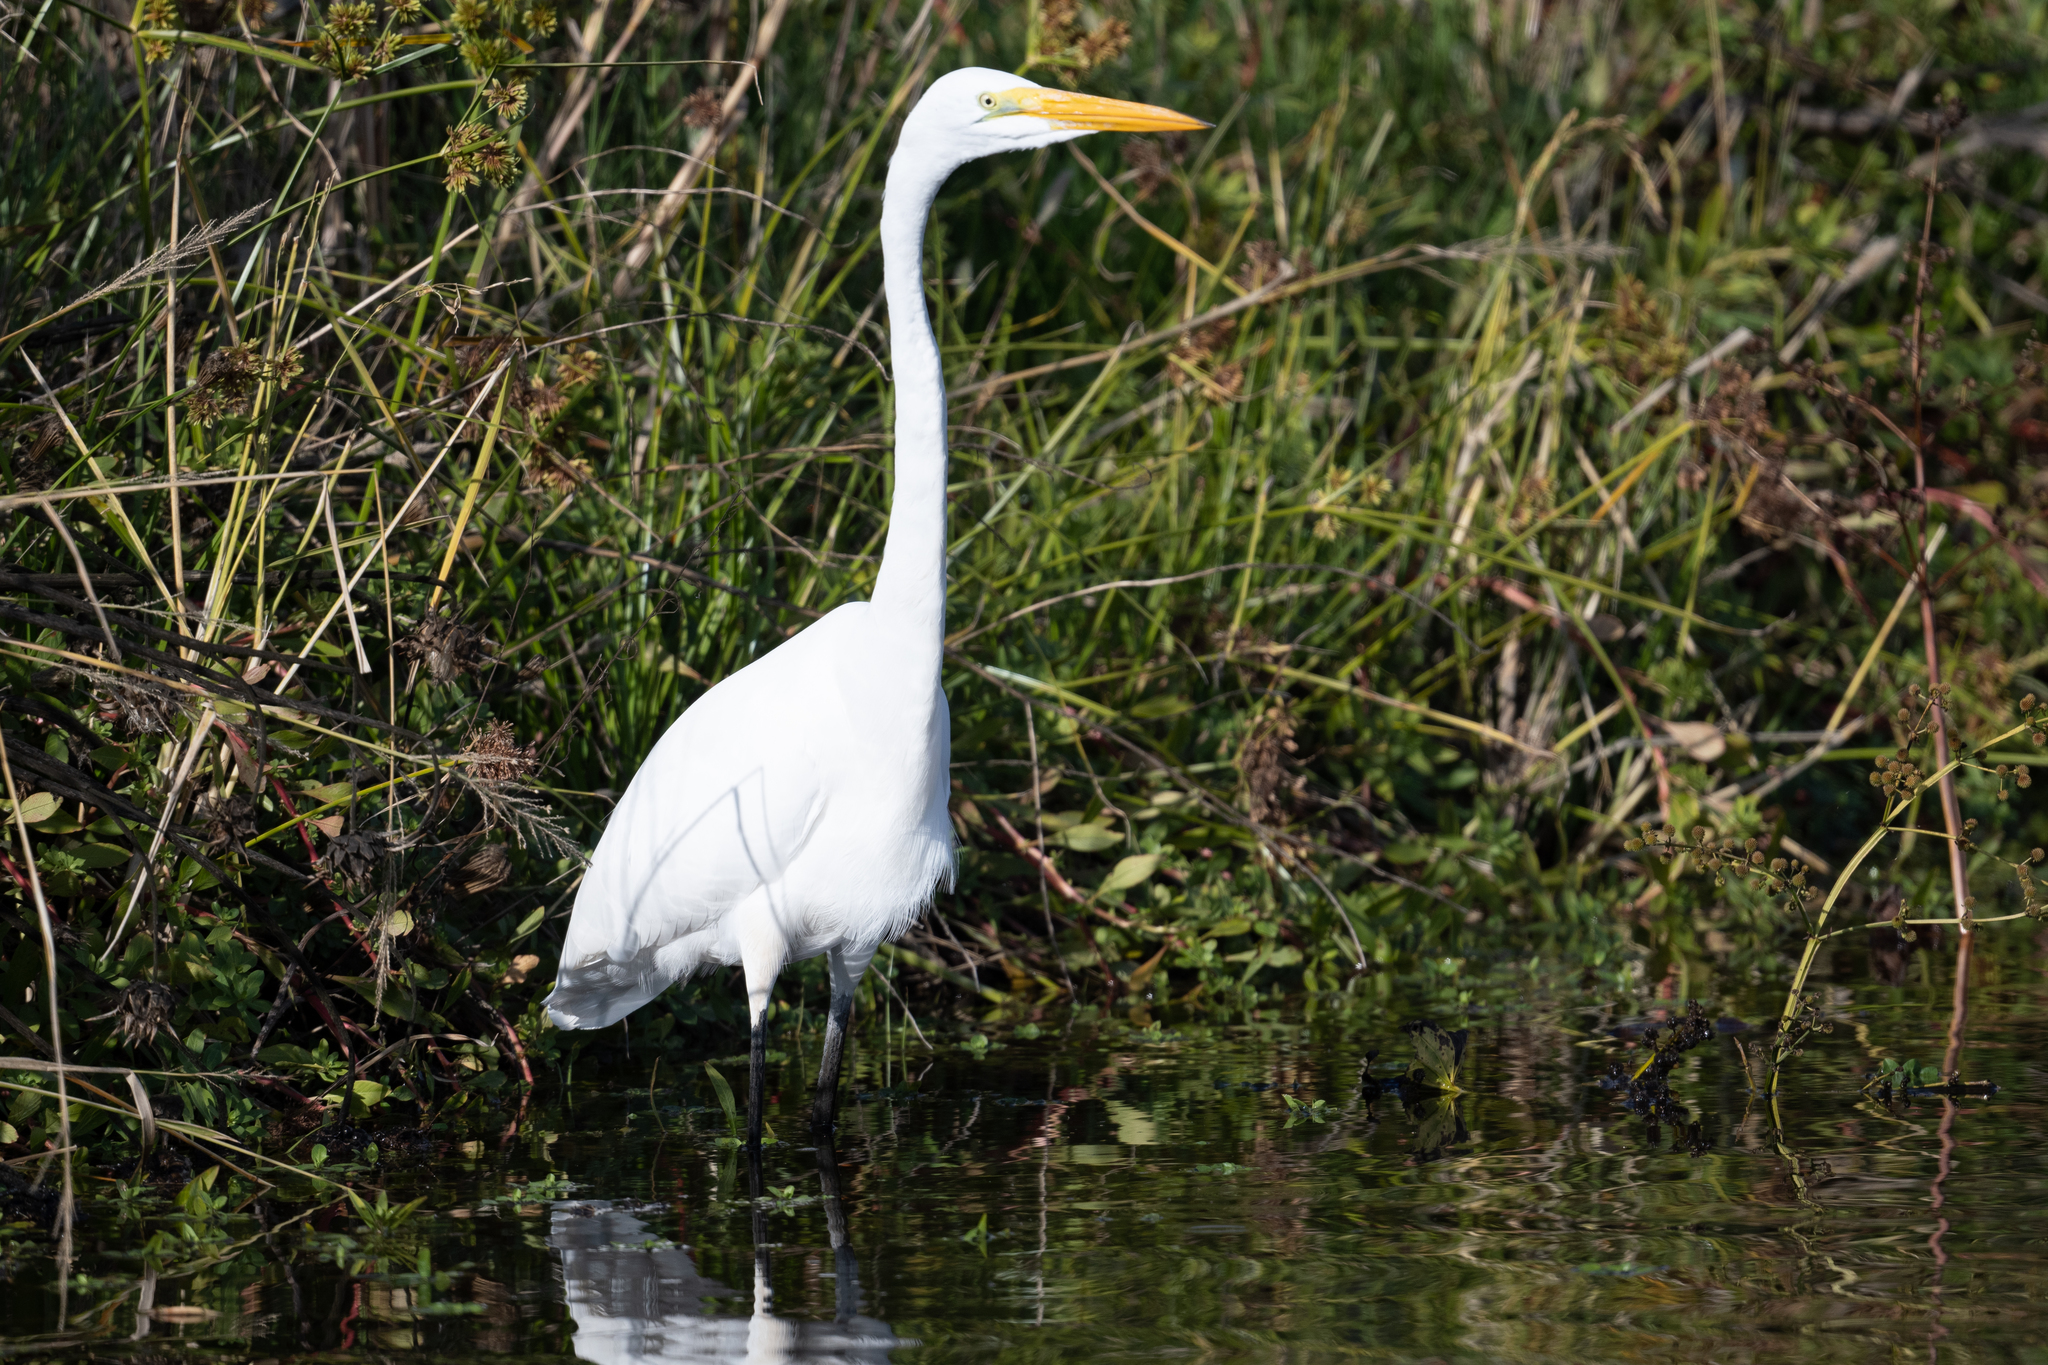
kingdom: Animalia
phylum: Chordata
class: Aves
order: Pelecaniformes
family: Ardeidae
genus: Ardea
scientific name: Ardea alba
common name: Great egret
